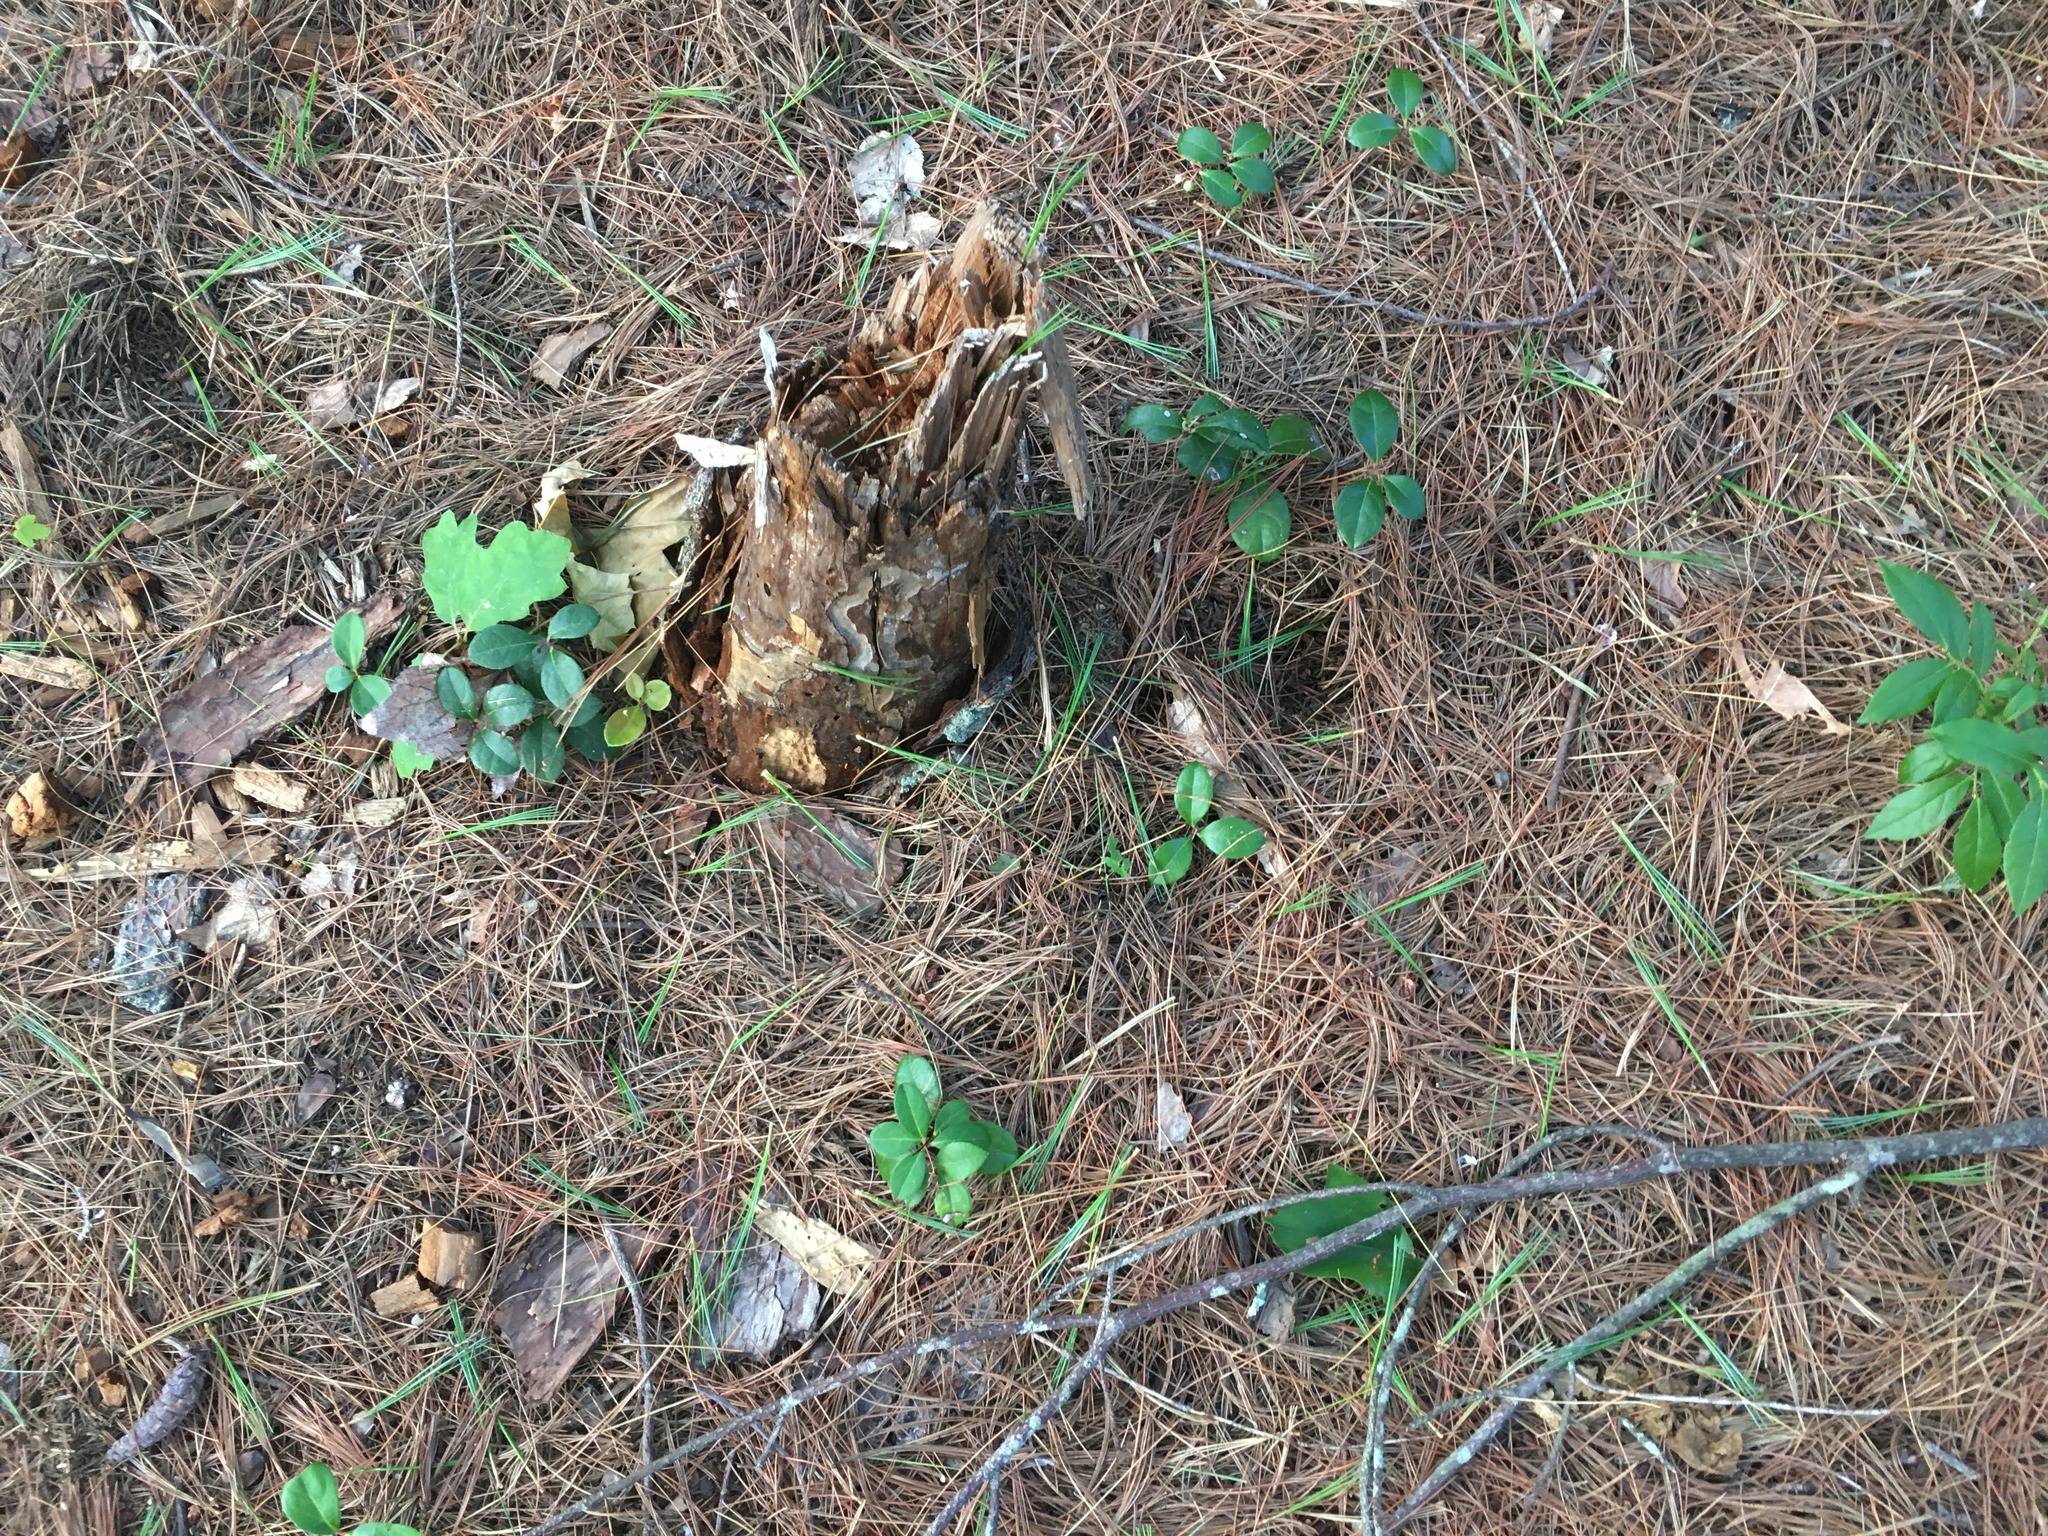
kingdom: Plantae
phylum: Tracheophyta
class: Magnoliopsida
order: Ericales
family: Ericaceae
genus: Gaultheria
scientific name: Gaultheria procumbens
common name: Checkerberry
